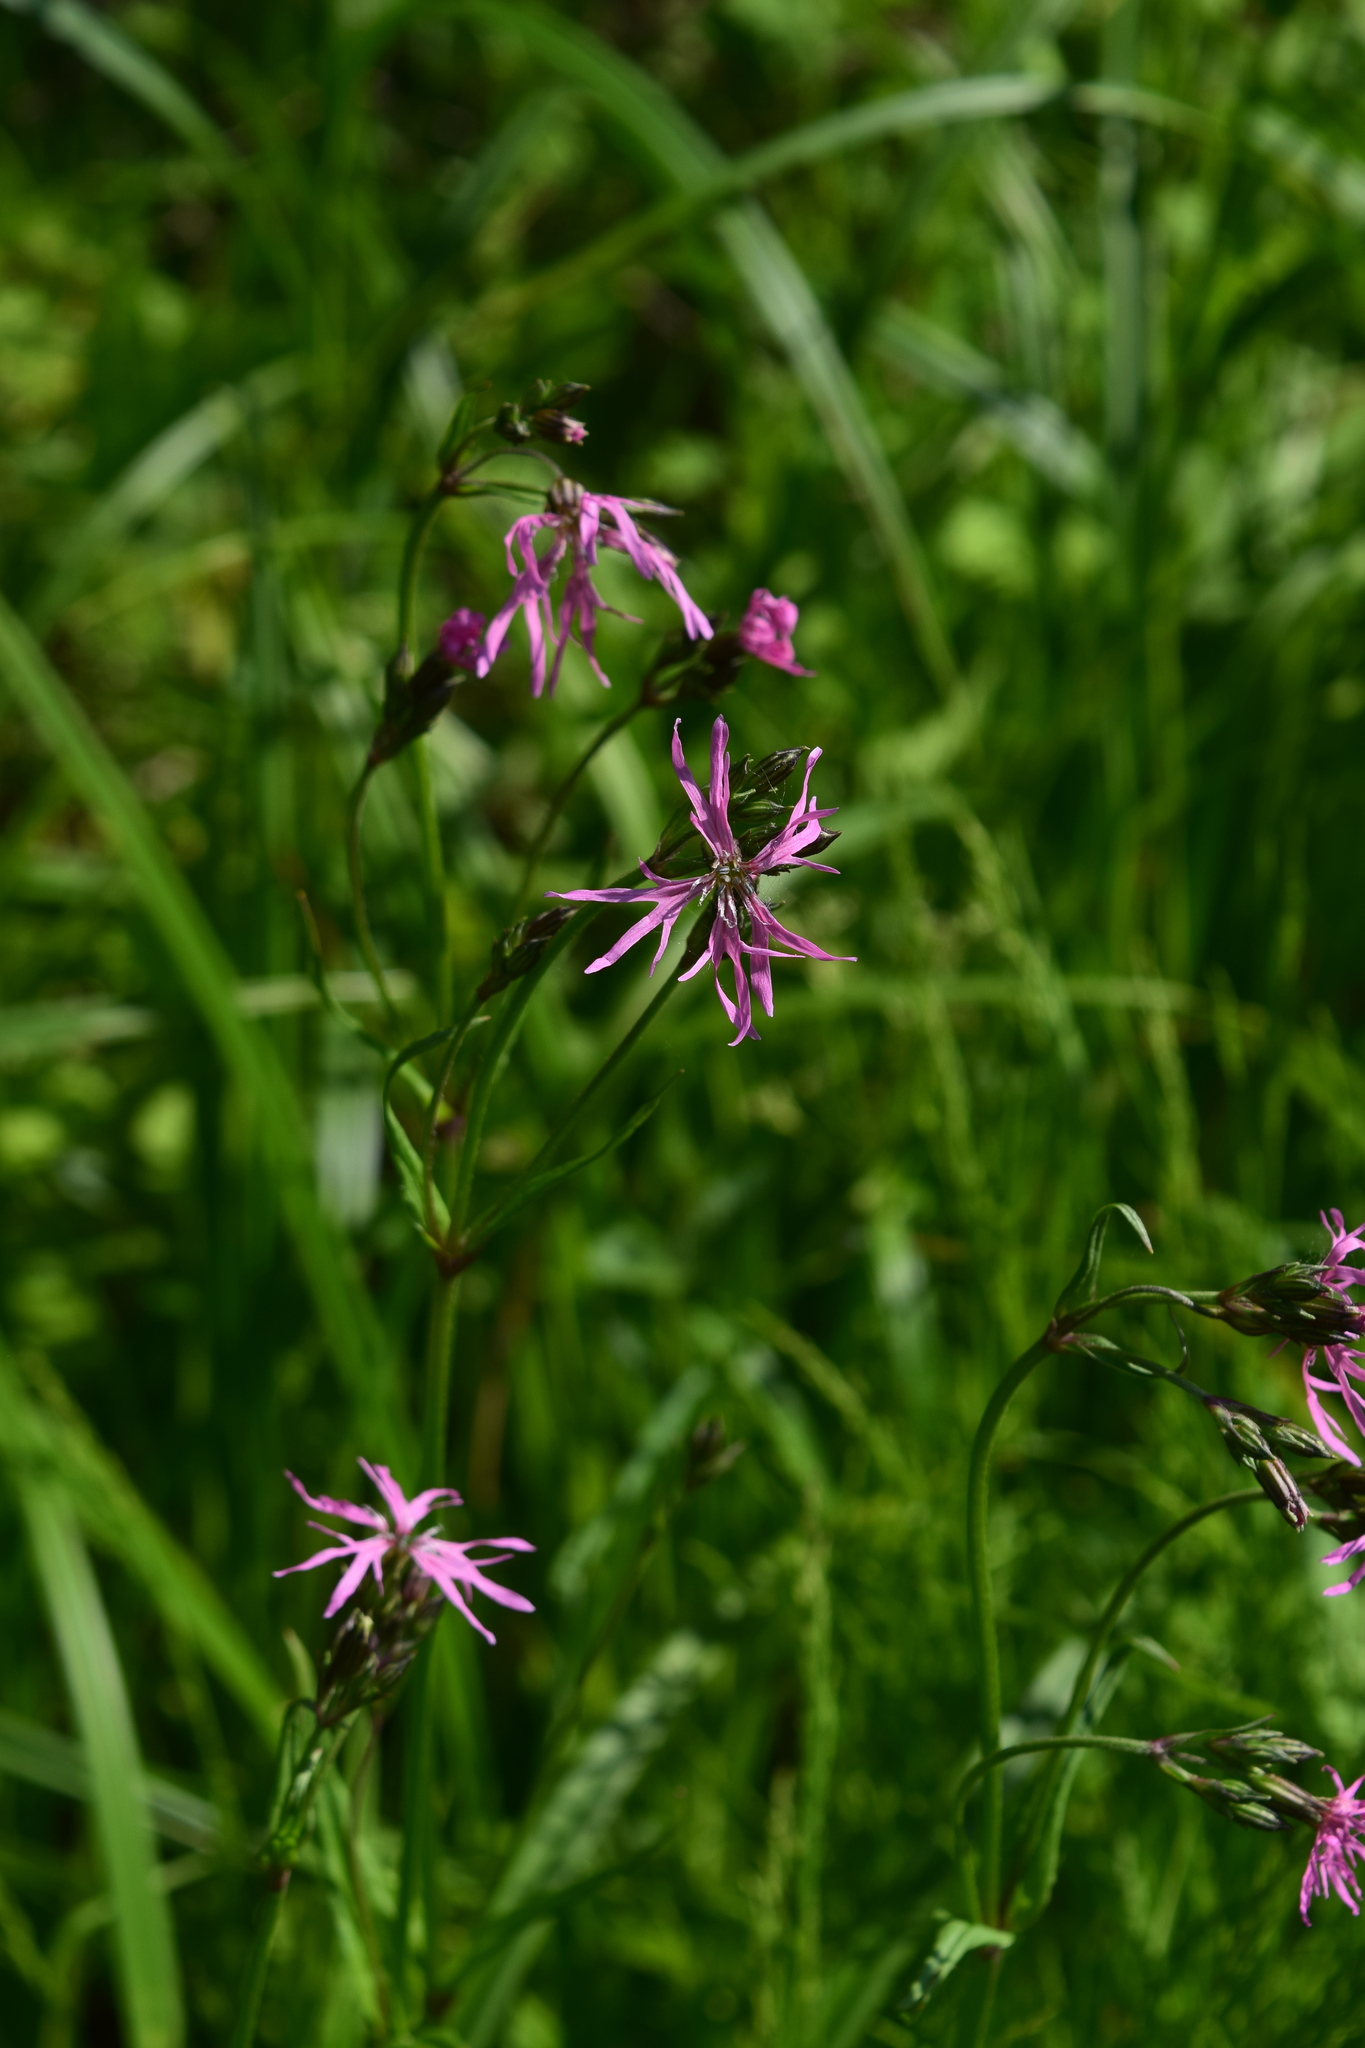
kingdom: Plantae
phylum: Tracheophyta
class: Magnoliopsida
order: Caryophyllales
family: Caryophyllaceae
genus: Silene
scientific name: Silene flos-cuculi
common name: Ragged-robin
